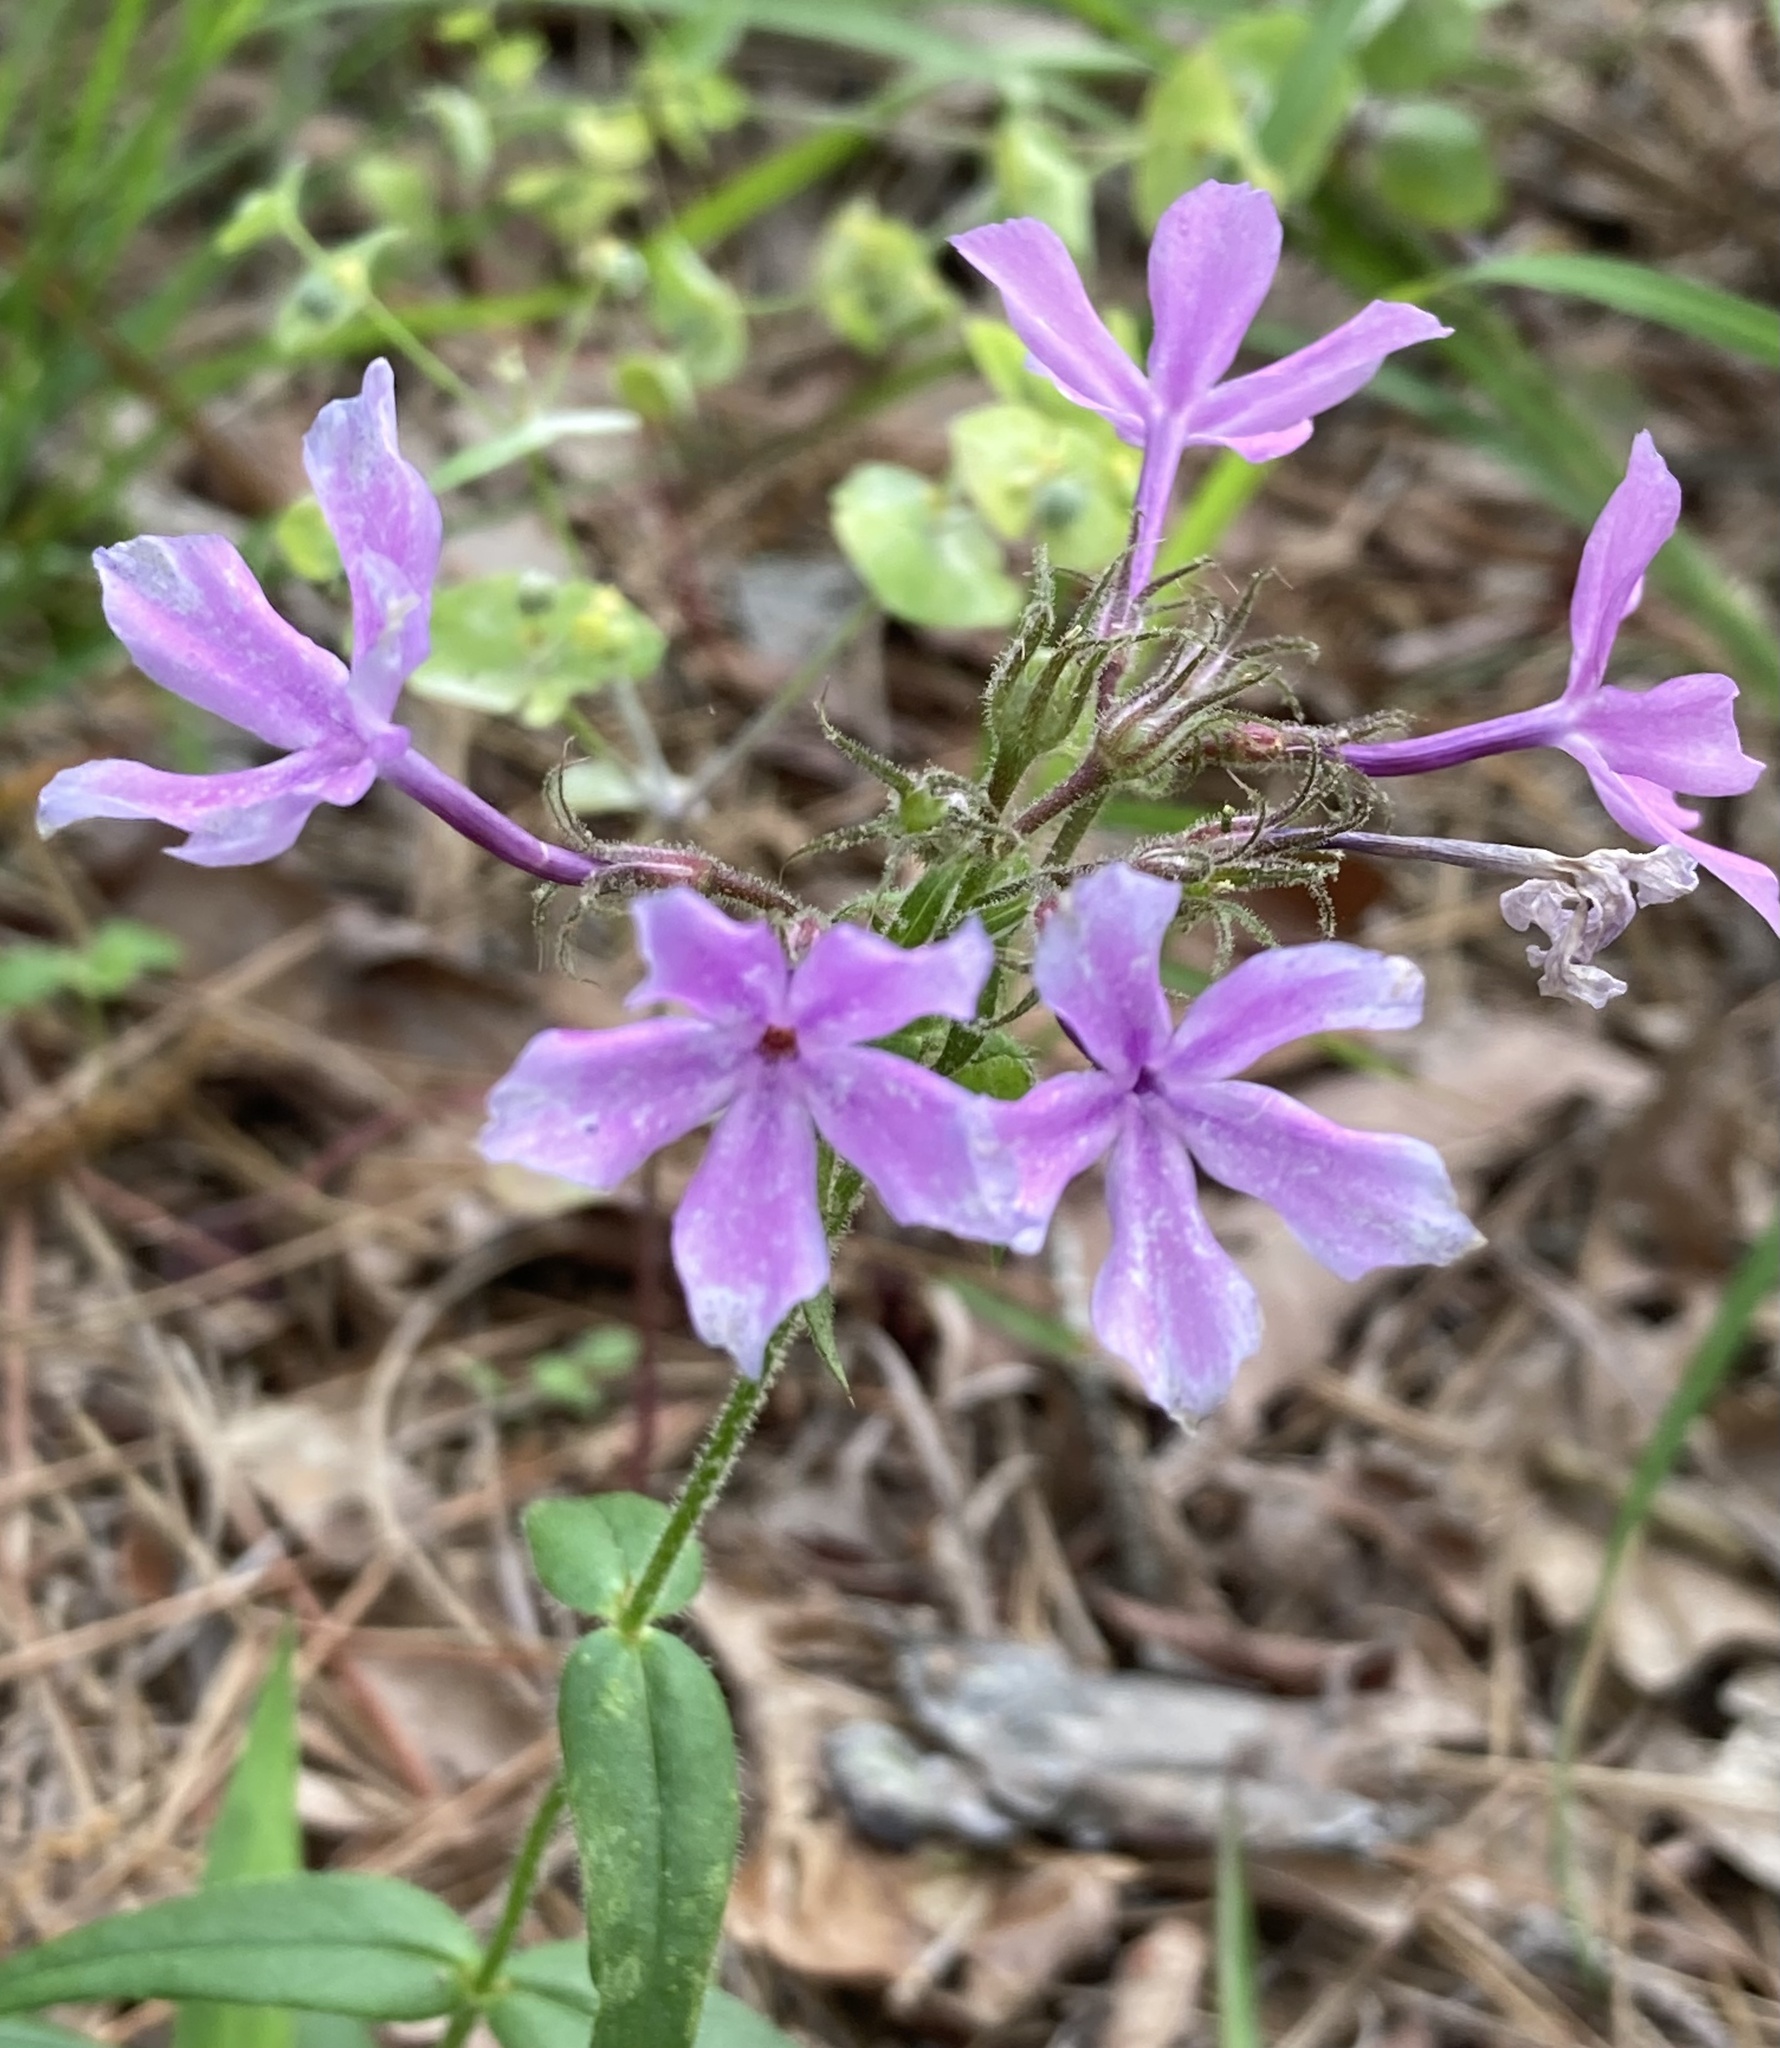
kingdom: Plantae
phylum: Tracheophyta
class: Magnoliopsida
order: Ericales
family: Polemoniaceae
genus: Phlox
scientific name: Phlox pilosa
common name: Prairie phlox
